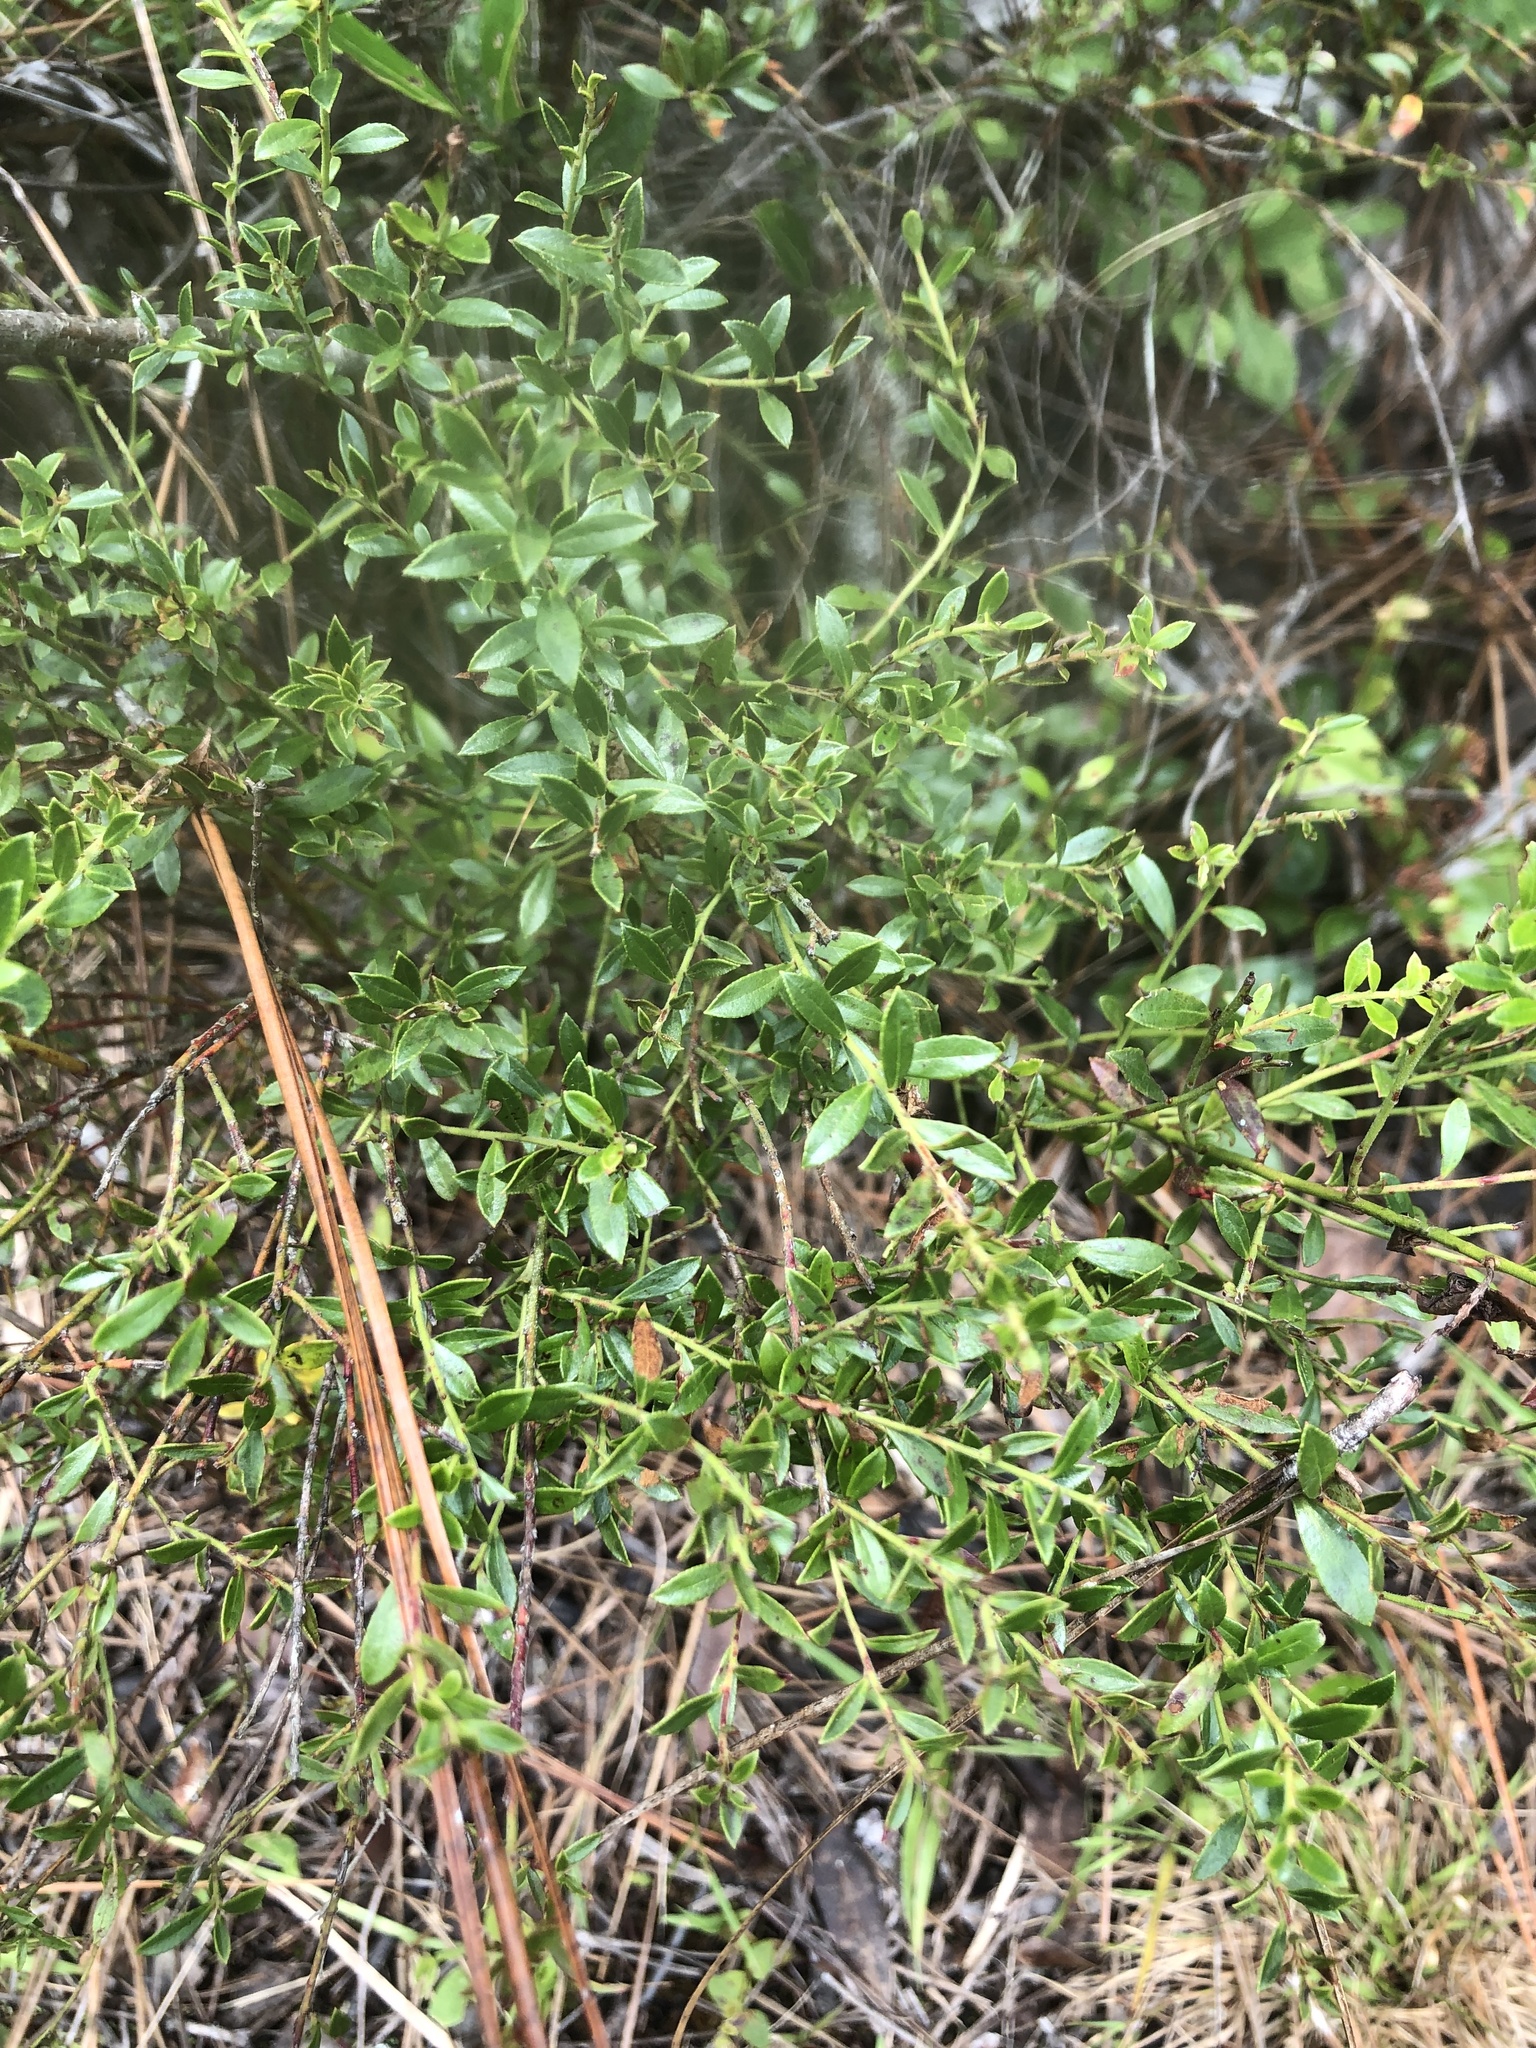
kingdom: Plantae
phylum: Tracheophyta
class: Magnoliopsida
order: Ericales
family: Ericaceae
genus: Vaccinium
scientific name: Vaccinium myrsinites
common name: Evergreen blueberry
